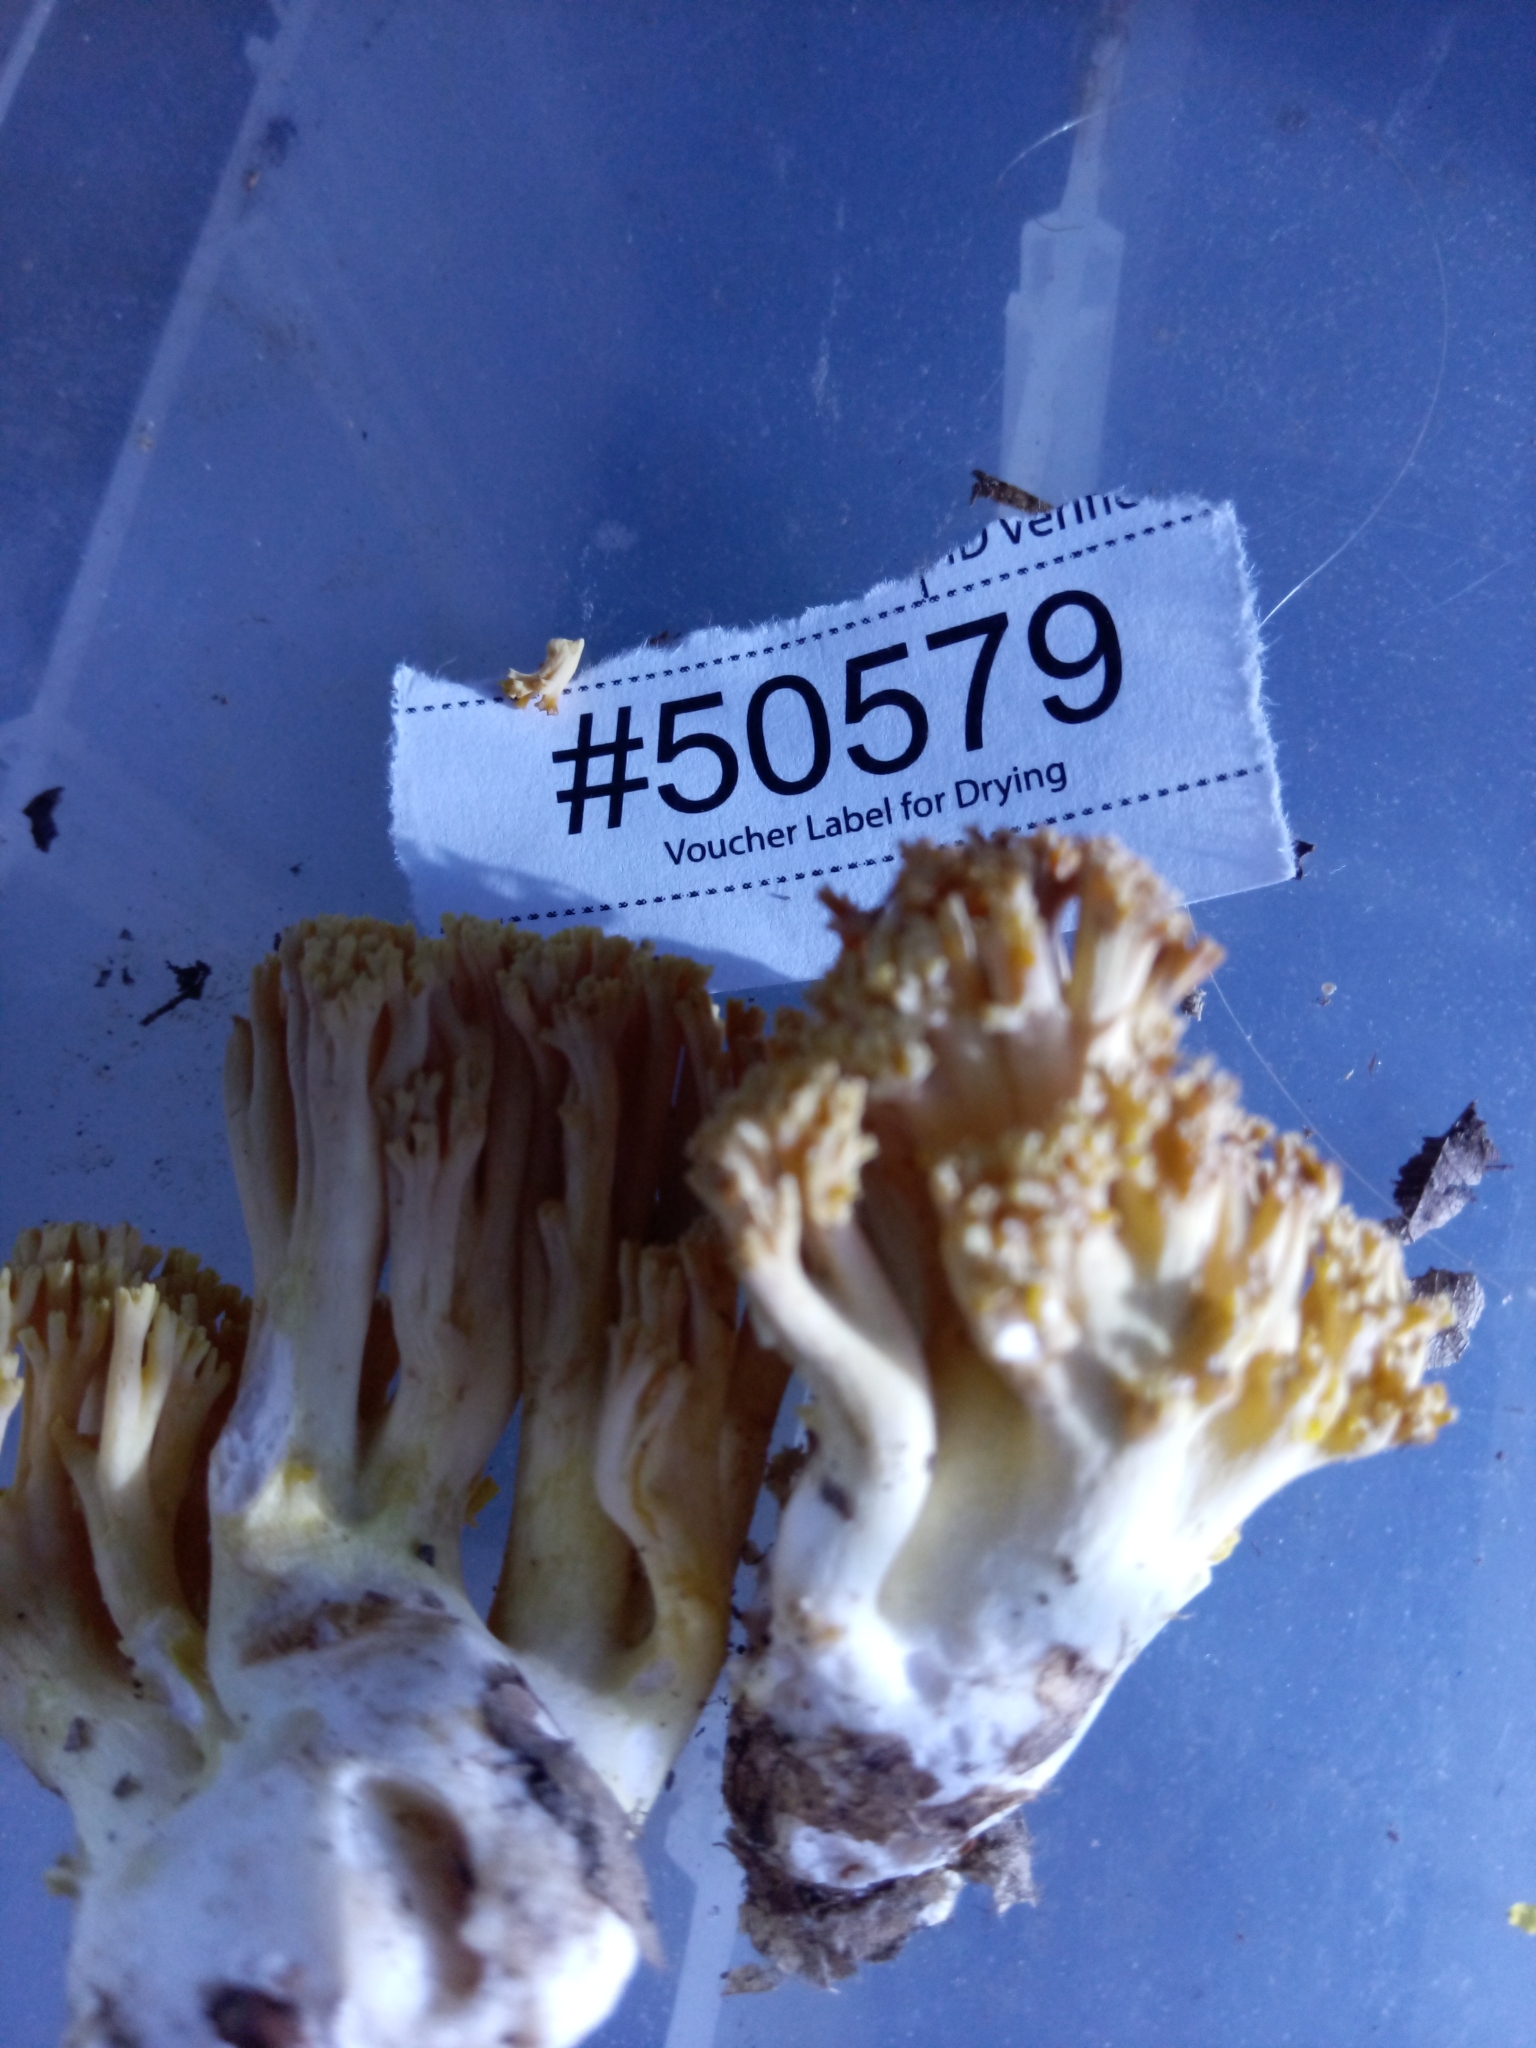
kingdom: Fungi
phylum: Basidiomycota
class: Agaricomycetes
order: Gomphales
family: Gomphaceae
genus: Ramaria
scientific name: Ramaria calvodistalis
